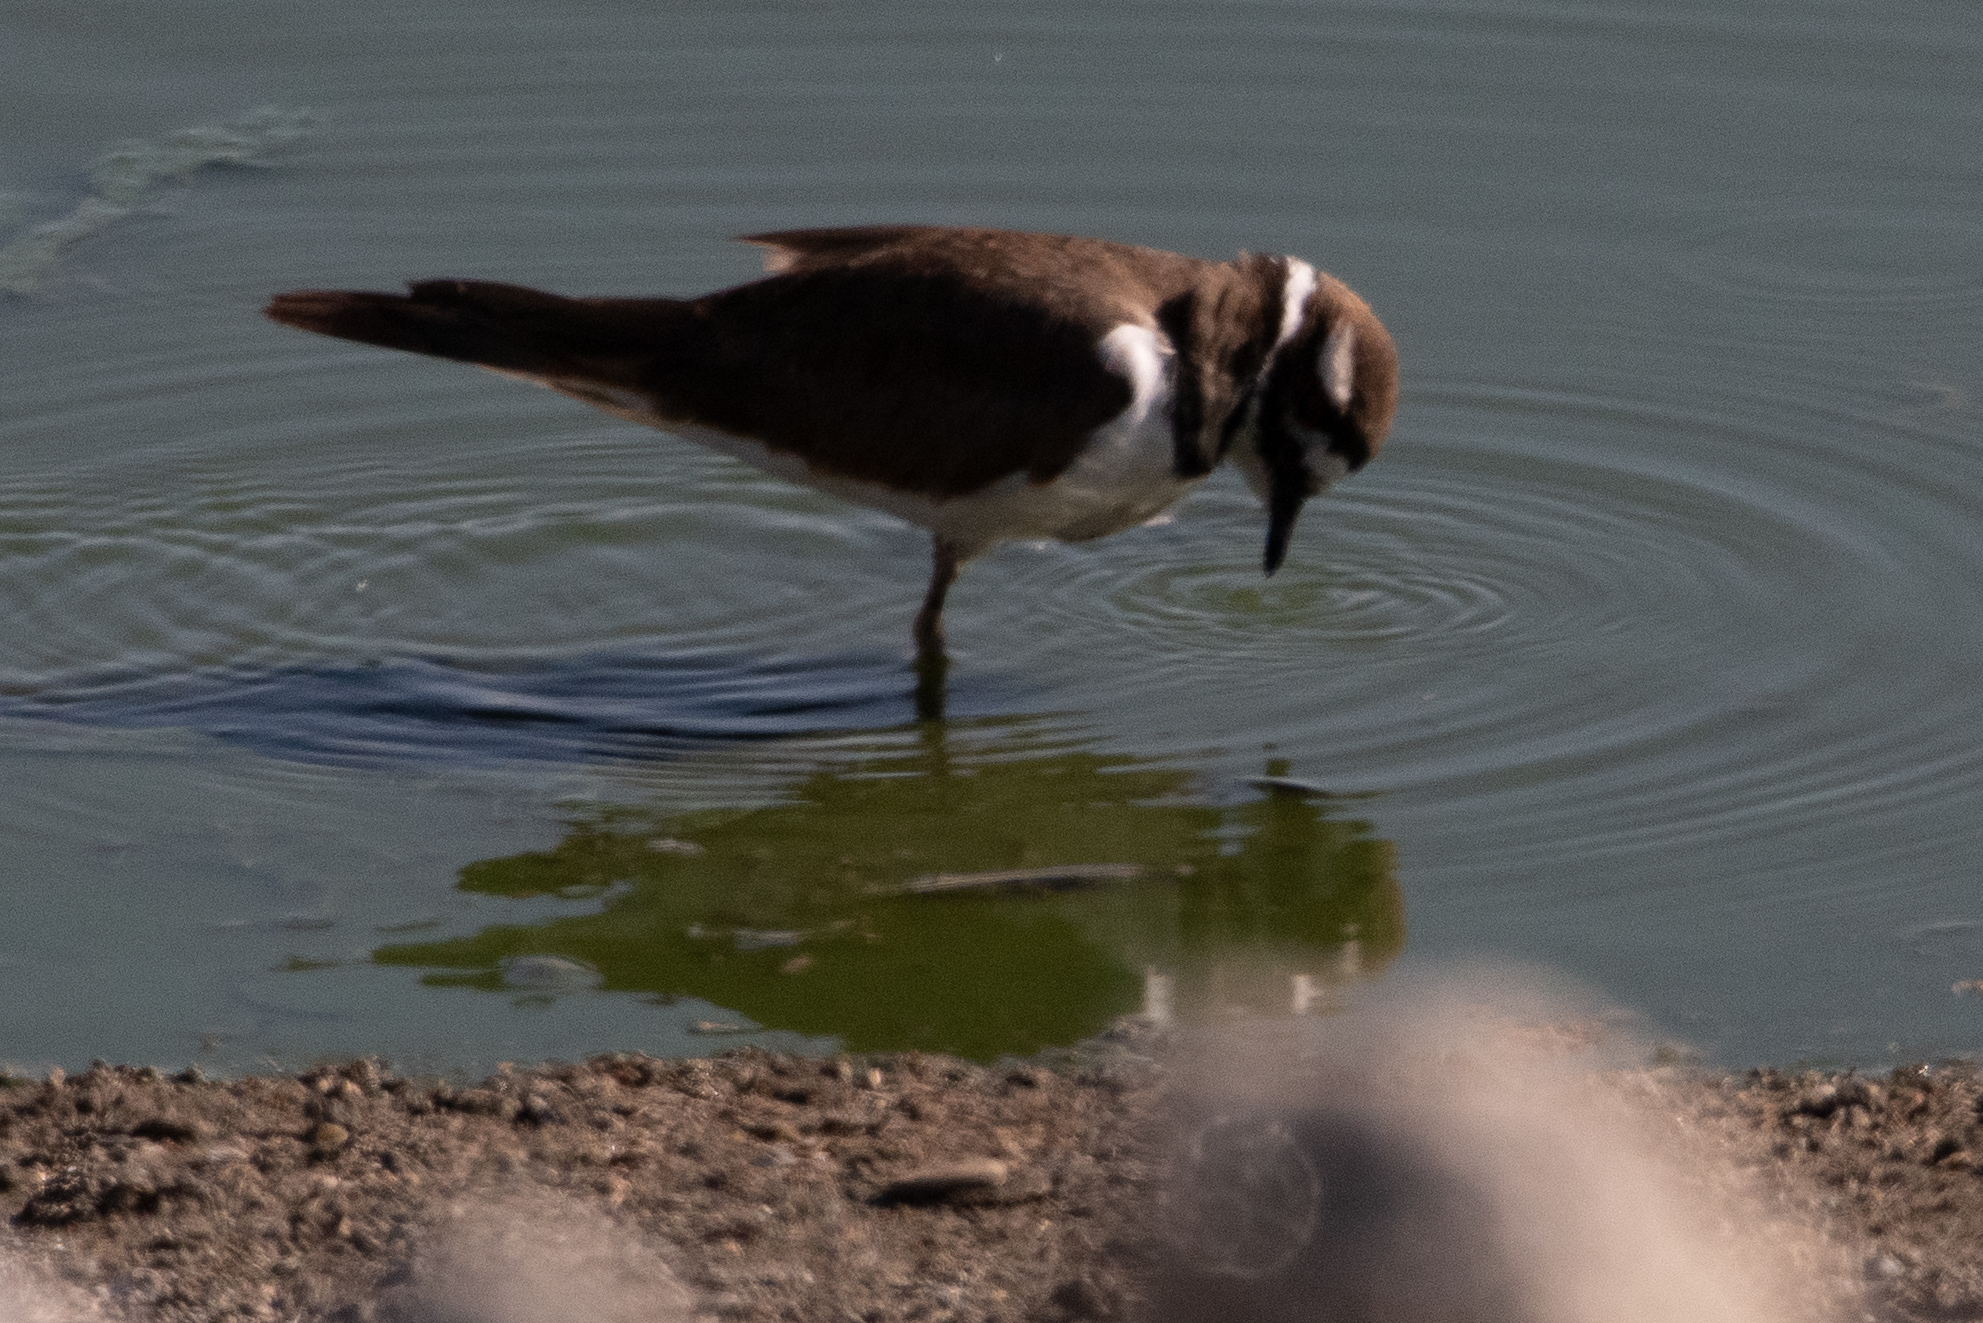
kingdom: Animalia
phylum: Chordata
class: Aves
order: Charadriiformes
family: Charadriidae
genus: Charadrius
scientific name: Charadrius vociferus
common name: Killdeer
